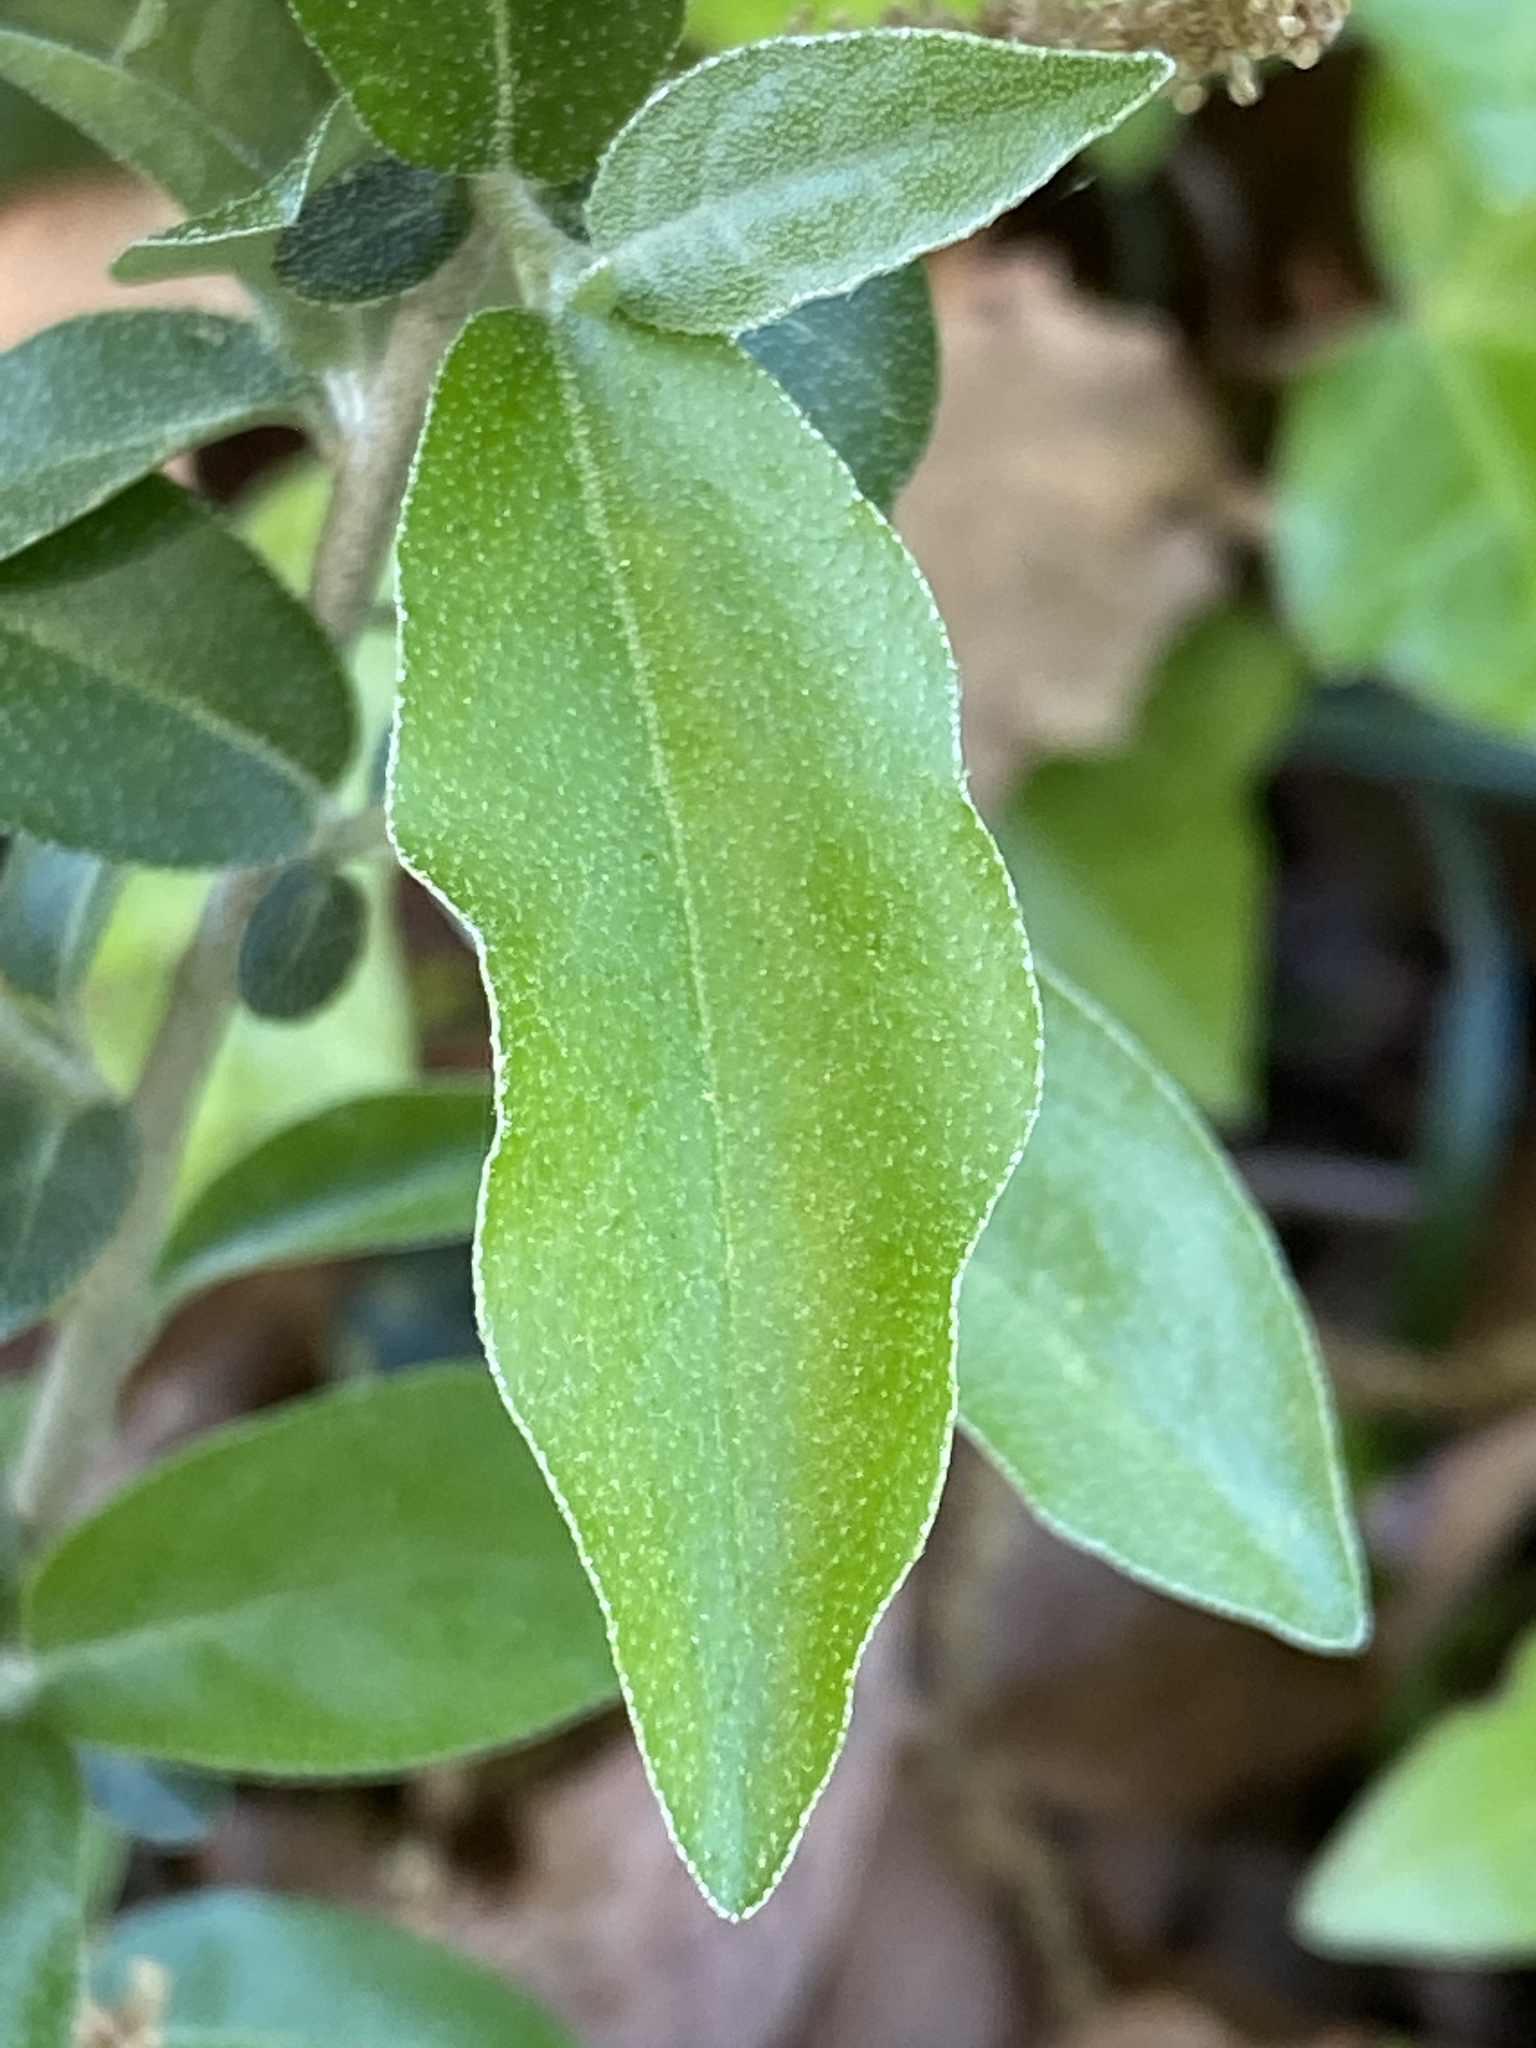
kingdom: Plantae
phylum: Tracheophyta
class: Magnoliopsida
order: Rosales
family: Elaeagnaceae
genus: Elaeagnus
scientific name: Elaeagnus umbellata
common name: Autumn olive
